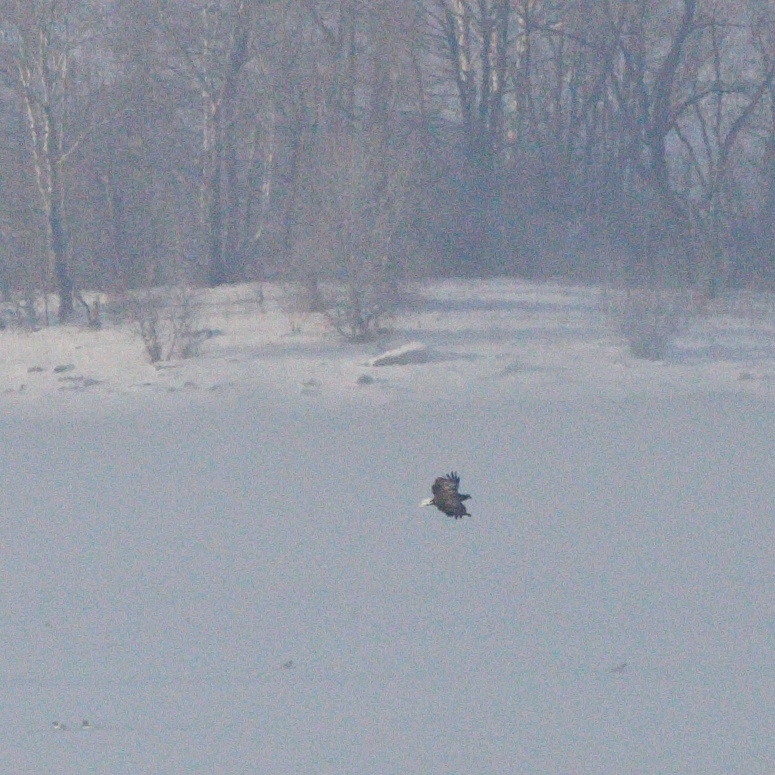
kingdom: Animalia
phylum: Chordata
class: Aves
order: Accipitriformes
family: Accipitridae
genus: Haliaeetus
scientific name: Haliaeetus albicilla
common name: White-tailed eagle
